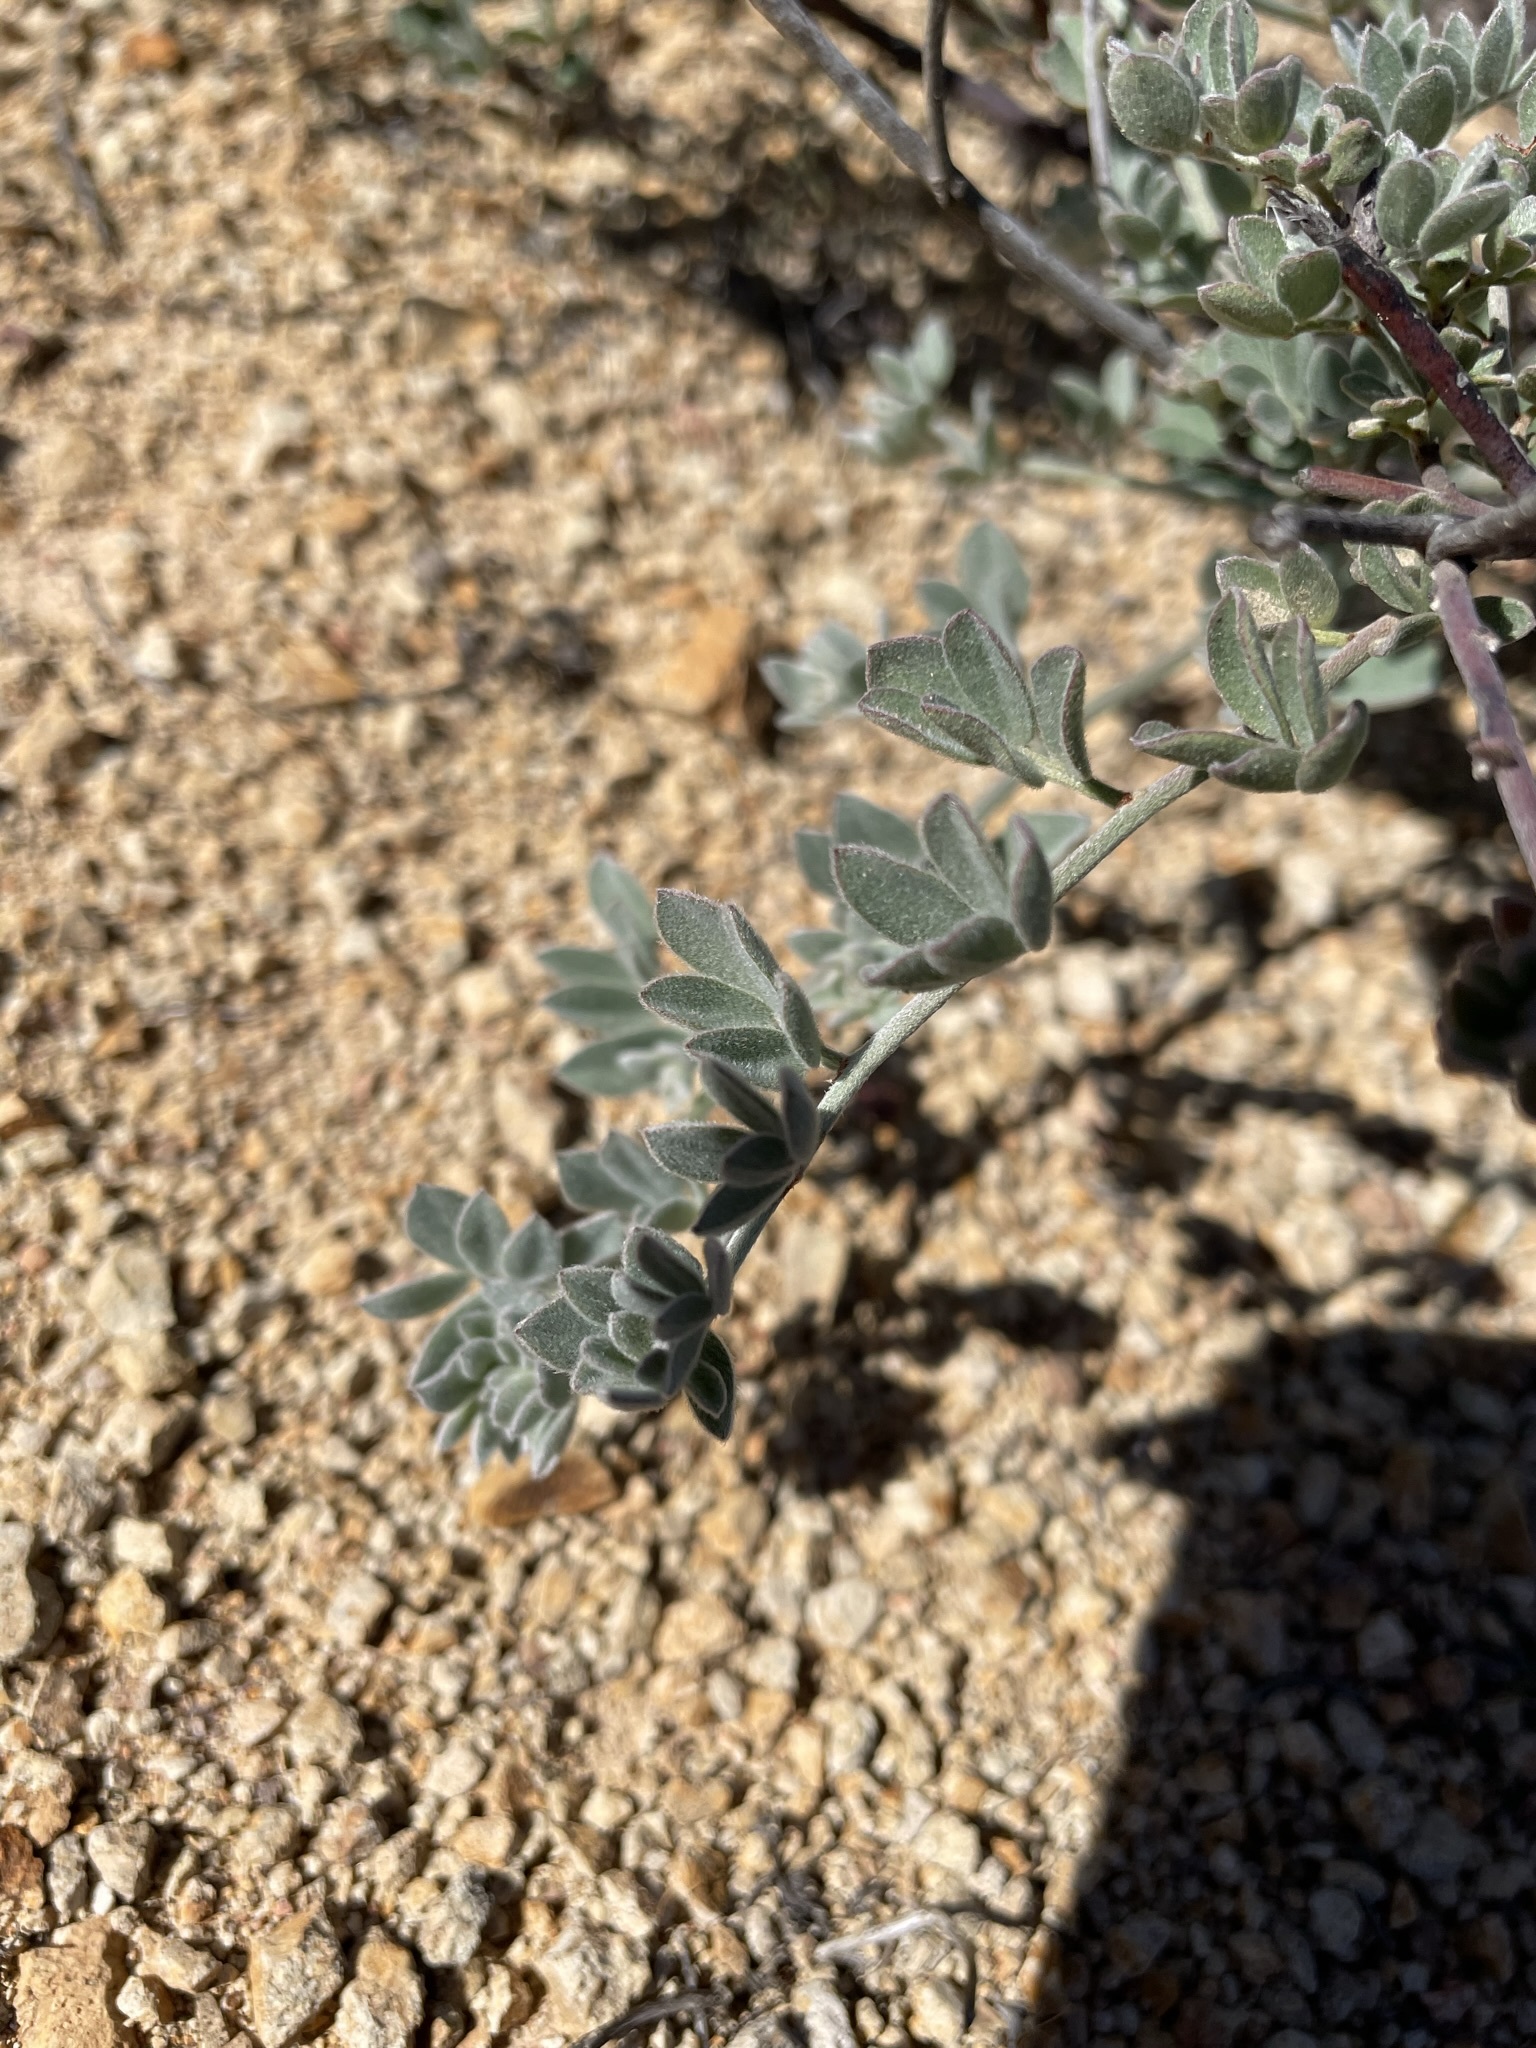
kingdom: Plantae
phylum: Tracheophyta
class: Magnoliopsida
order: Fabales
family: Fabaceae
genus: Acmispon
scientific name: Acmispon argophyllus
